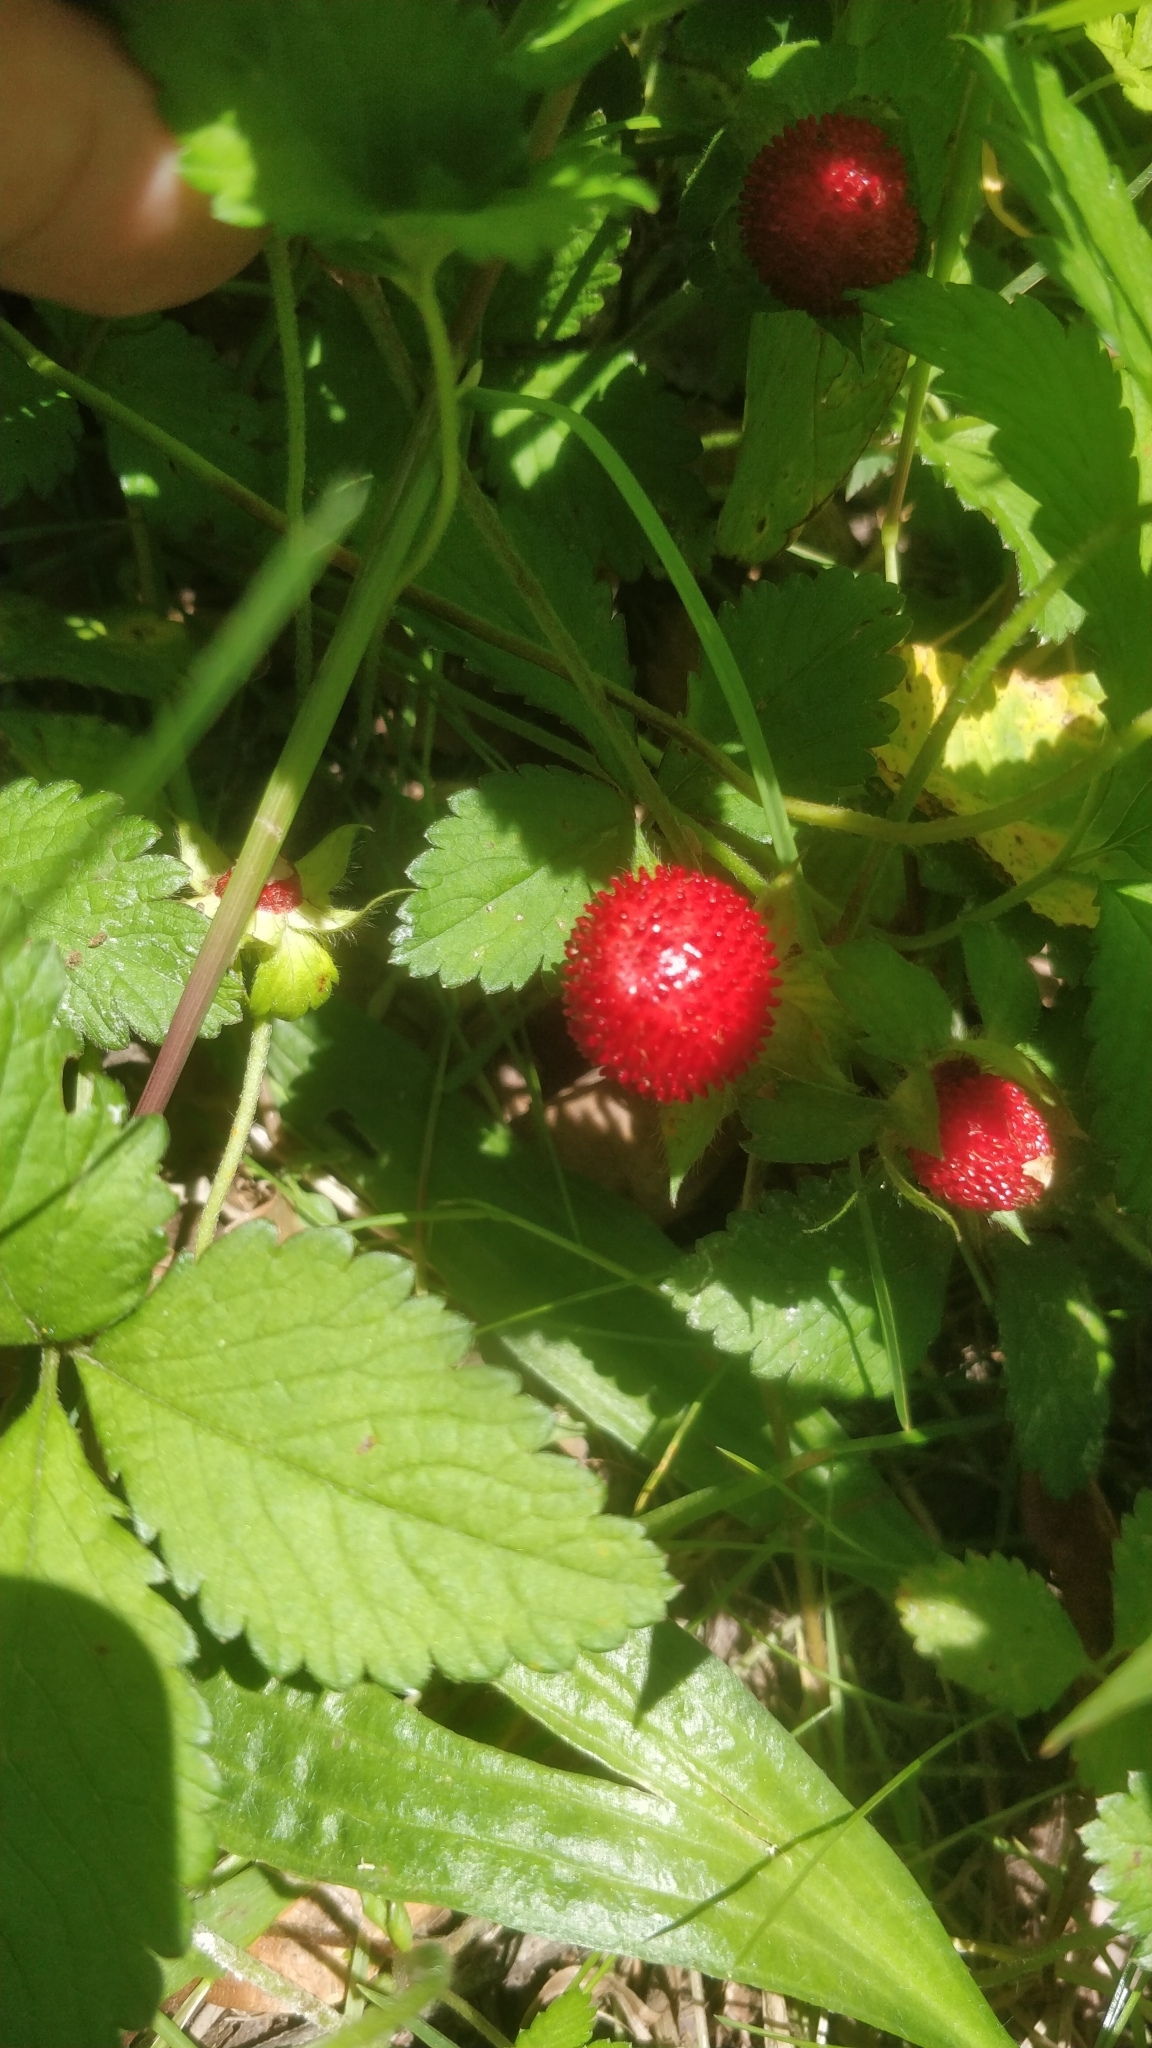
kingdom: Plantae
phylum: Tracheophyta
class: Magnoliopsida
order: Rosales
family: Rosaceae
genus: Potentilla
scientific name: Potentilla indica
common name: Yellow-flowered strawberry
